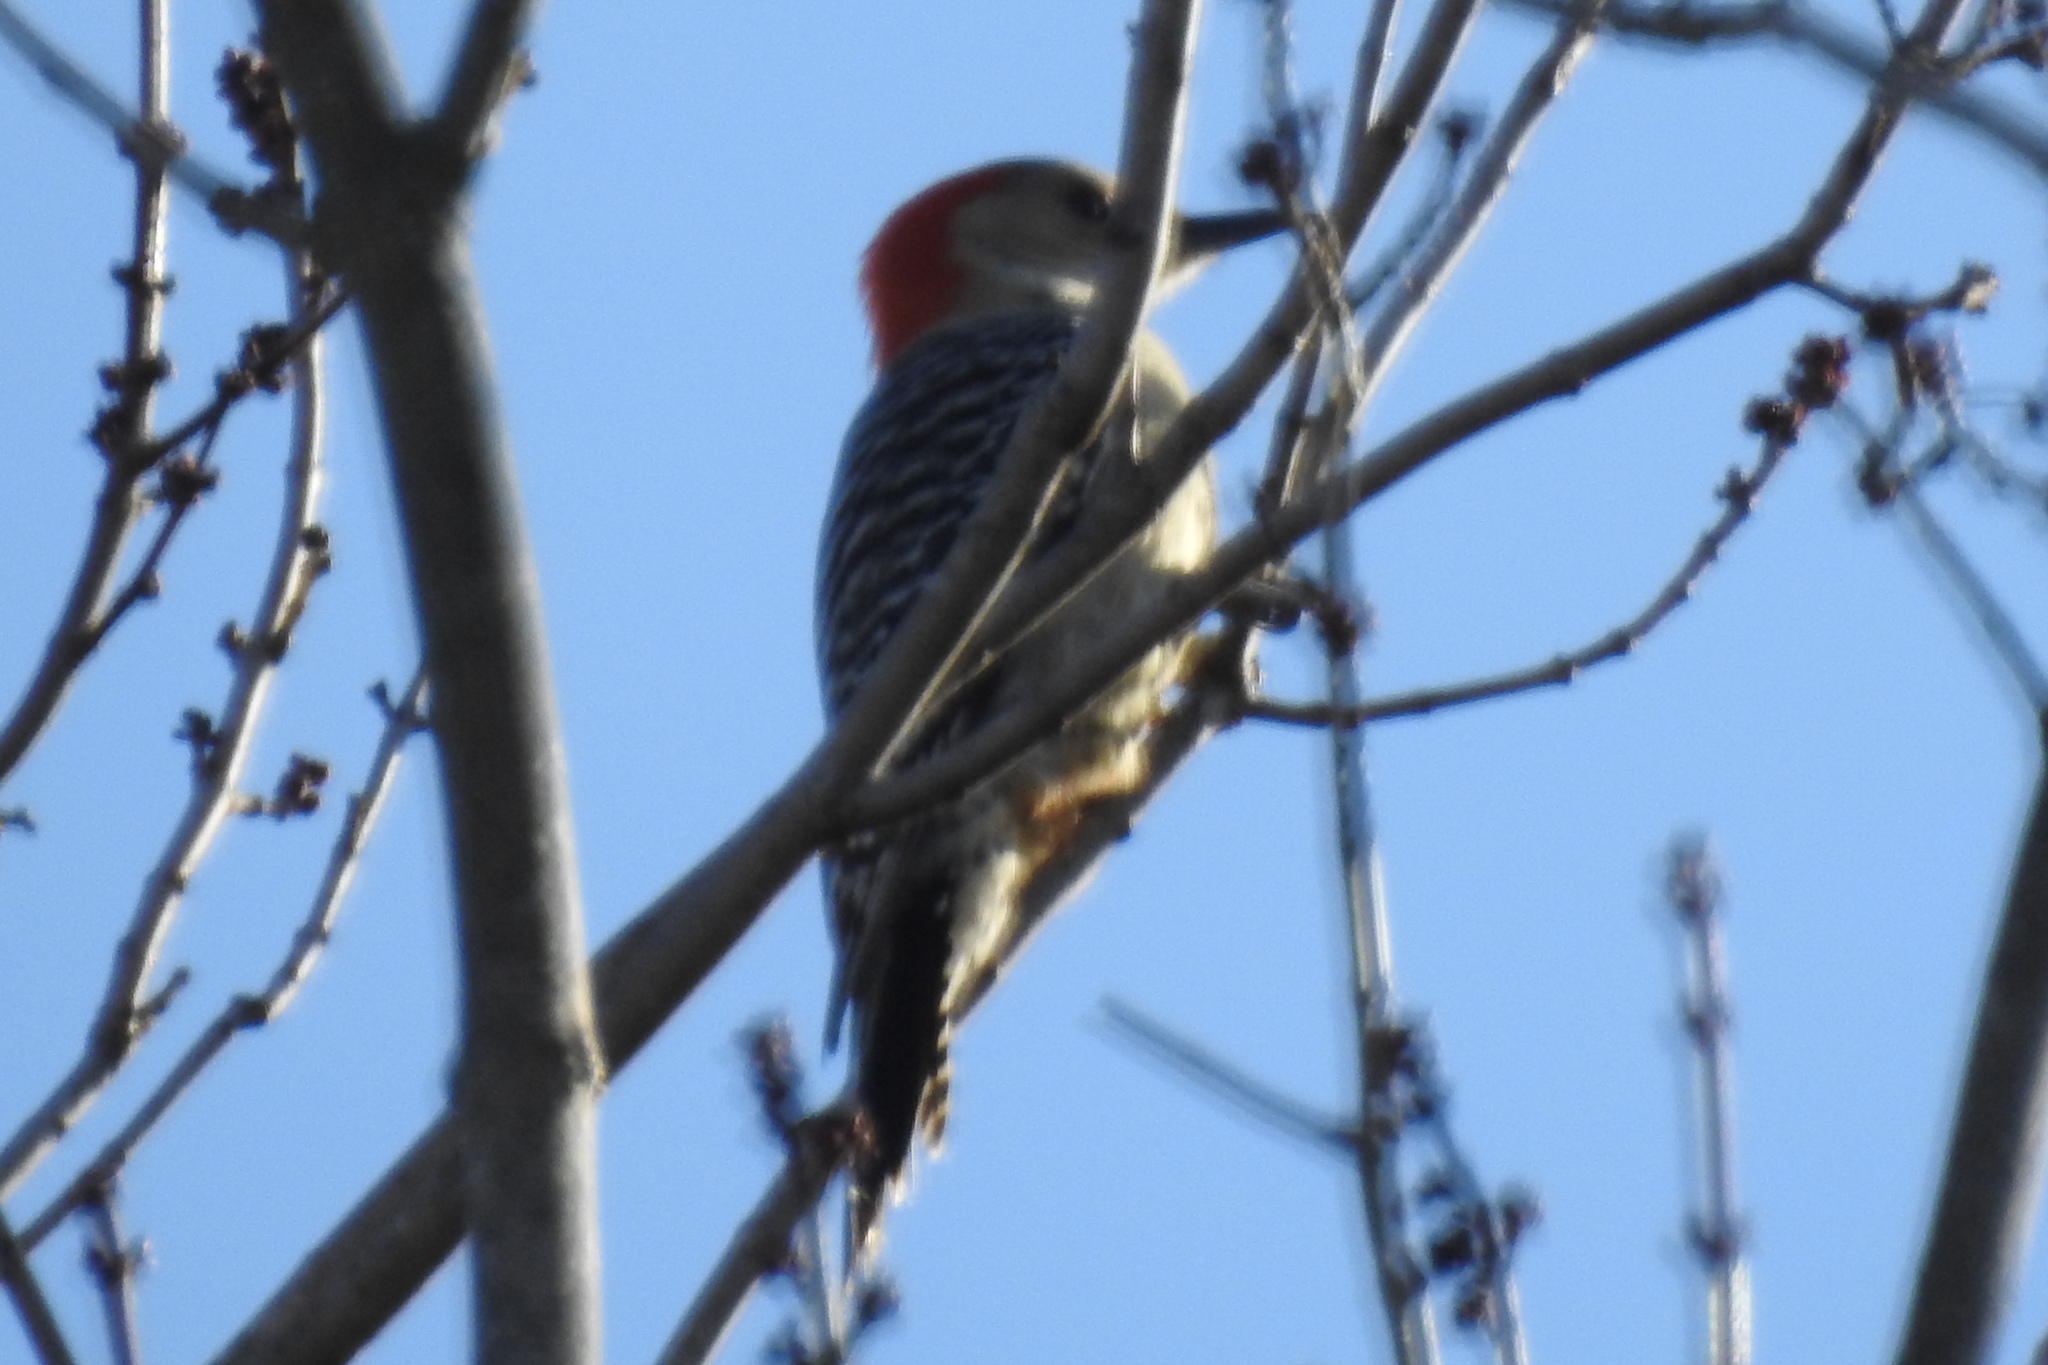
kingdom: Animalia
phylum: Chordata
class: Aves
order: Piciformes
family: Picidae
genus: Melanerpes
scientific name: Melanerpes carolinus
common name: Red-bellied woodpecker
